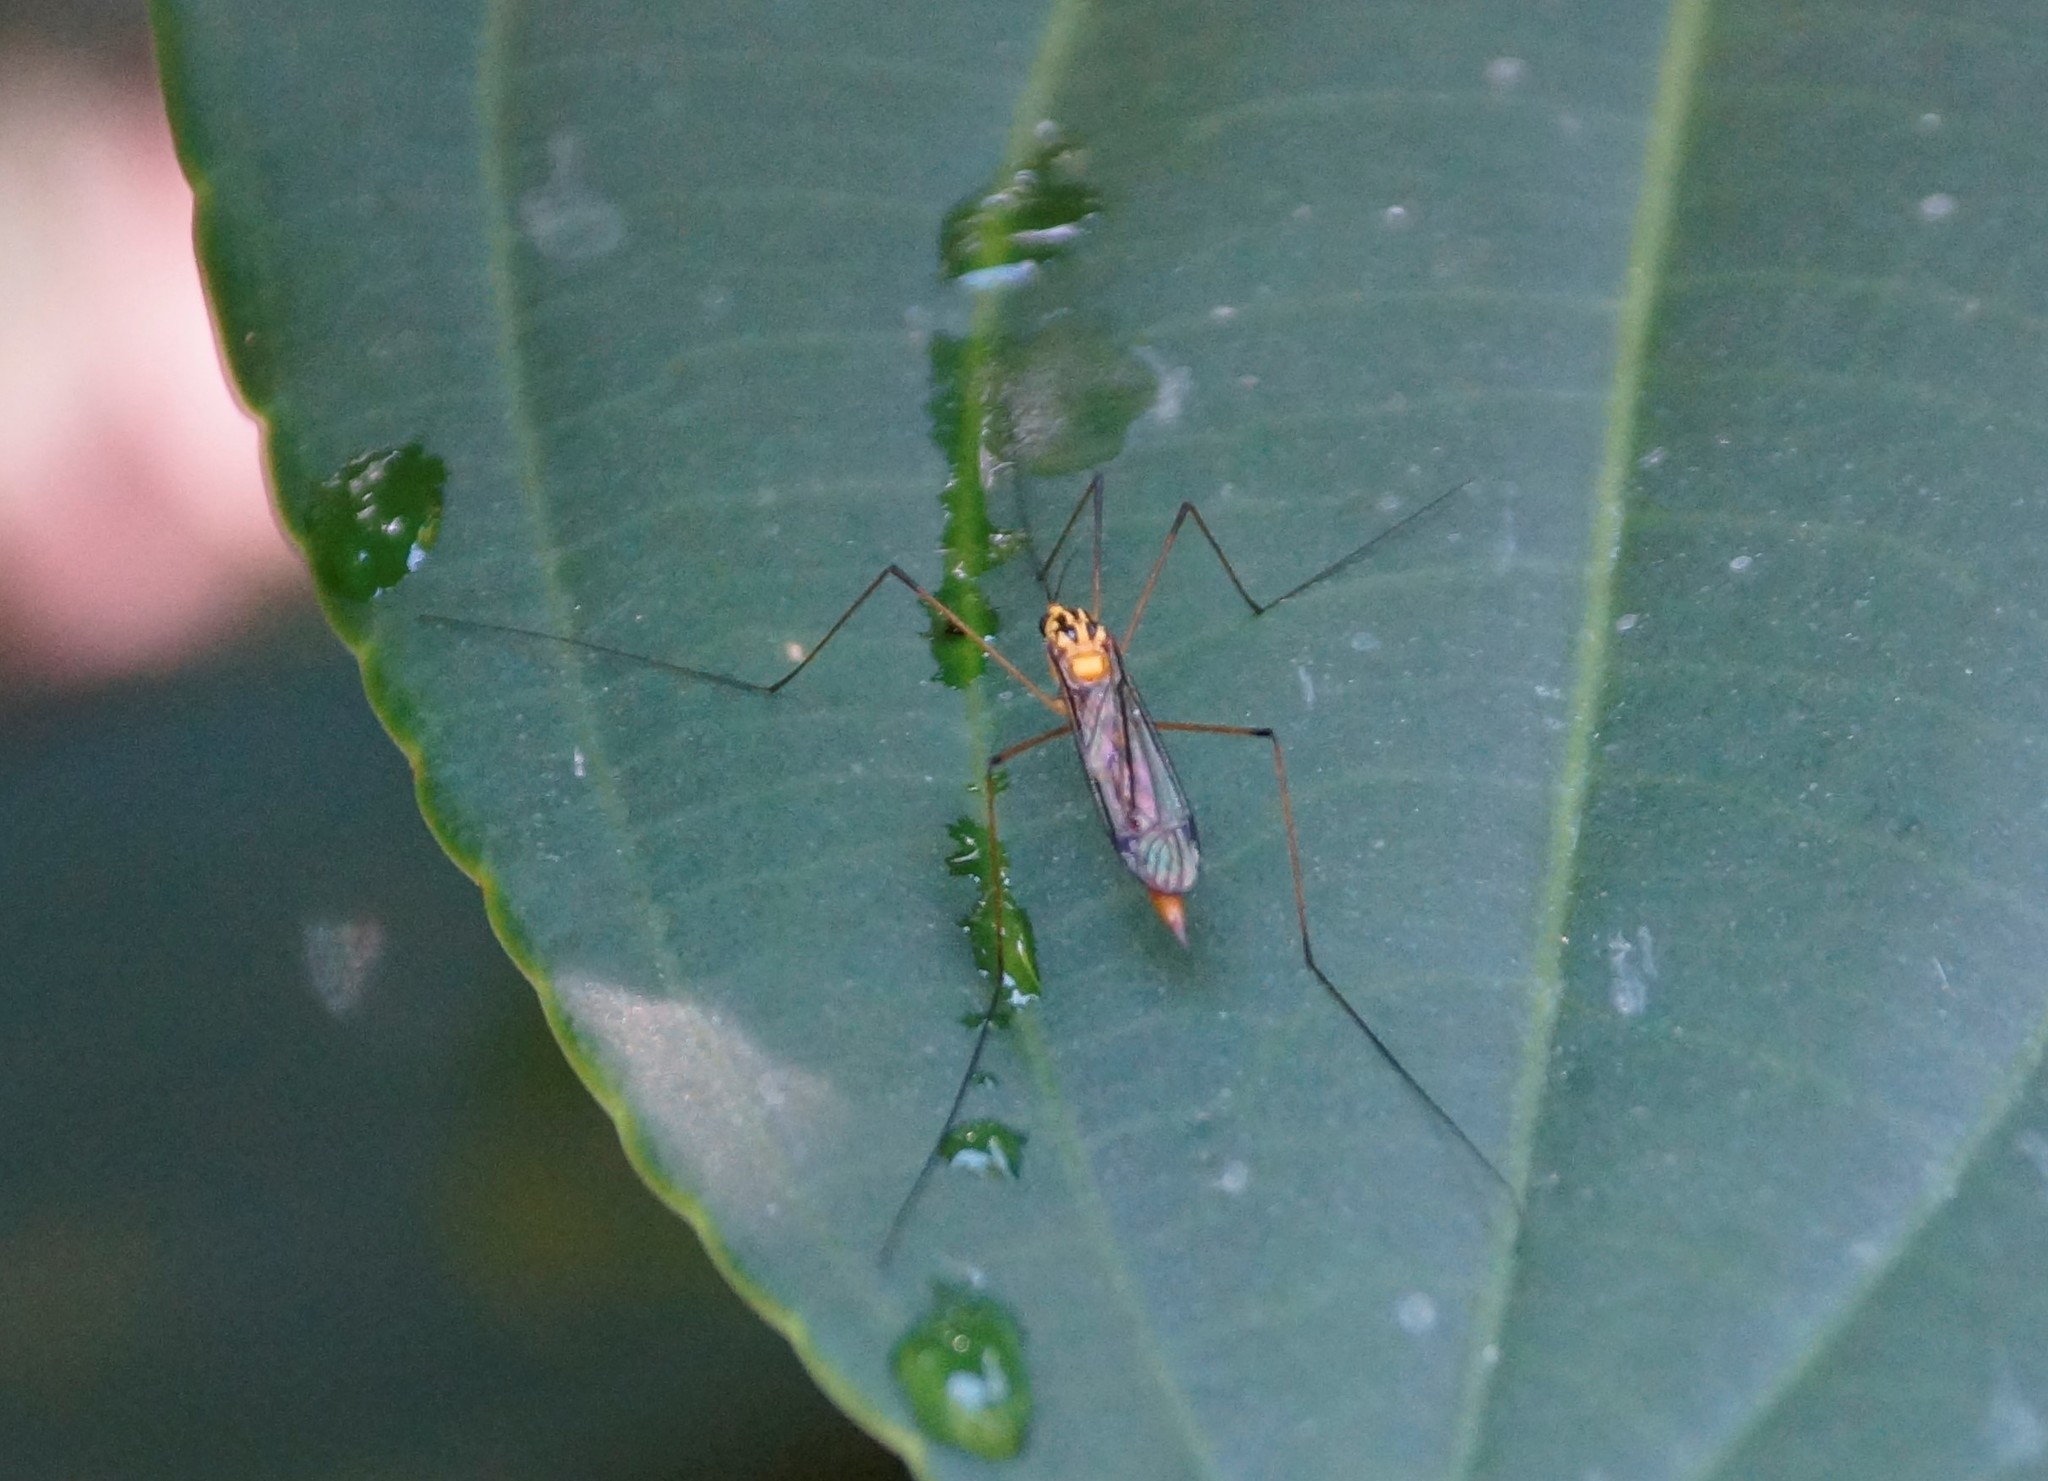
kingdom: Animalia
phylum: Arthropoda
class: Insecta
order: Diptera
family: Tipulidae
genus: Nephrotoma
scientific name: Nephrotoma australasiae
